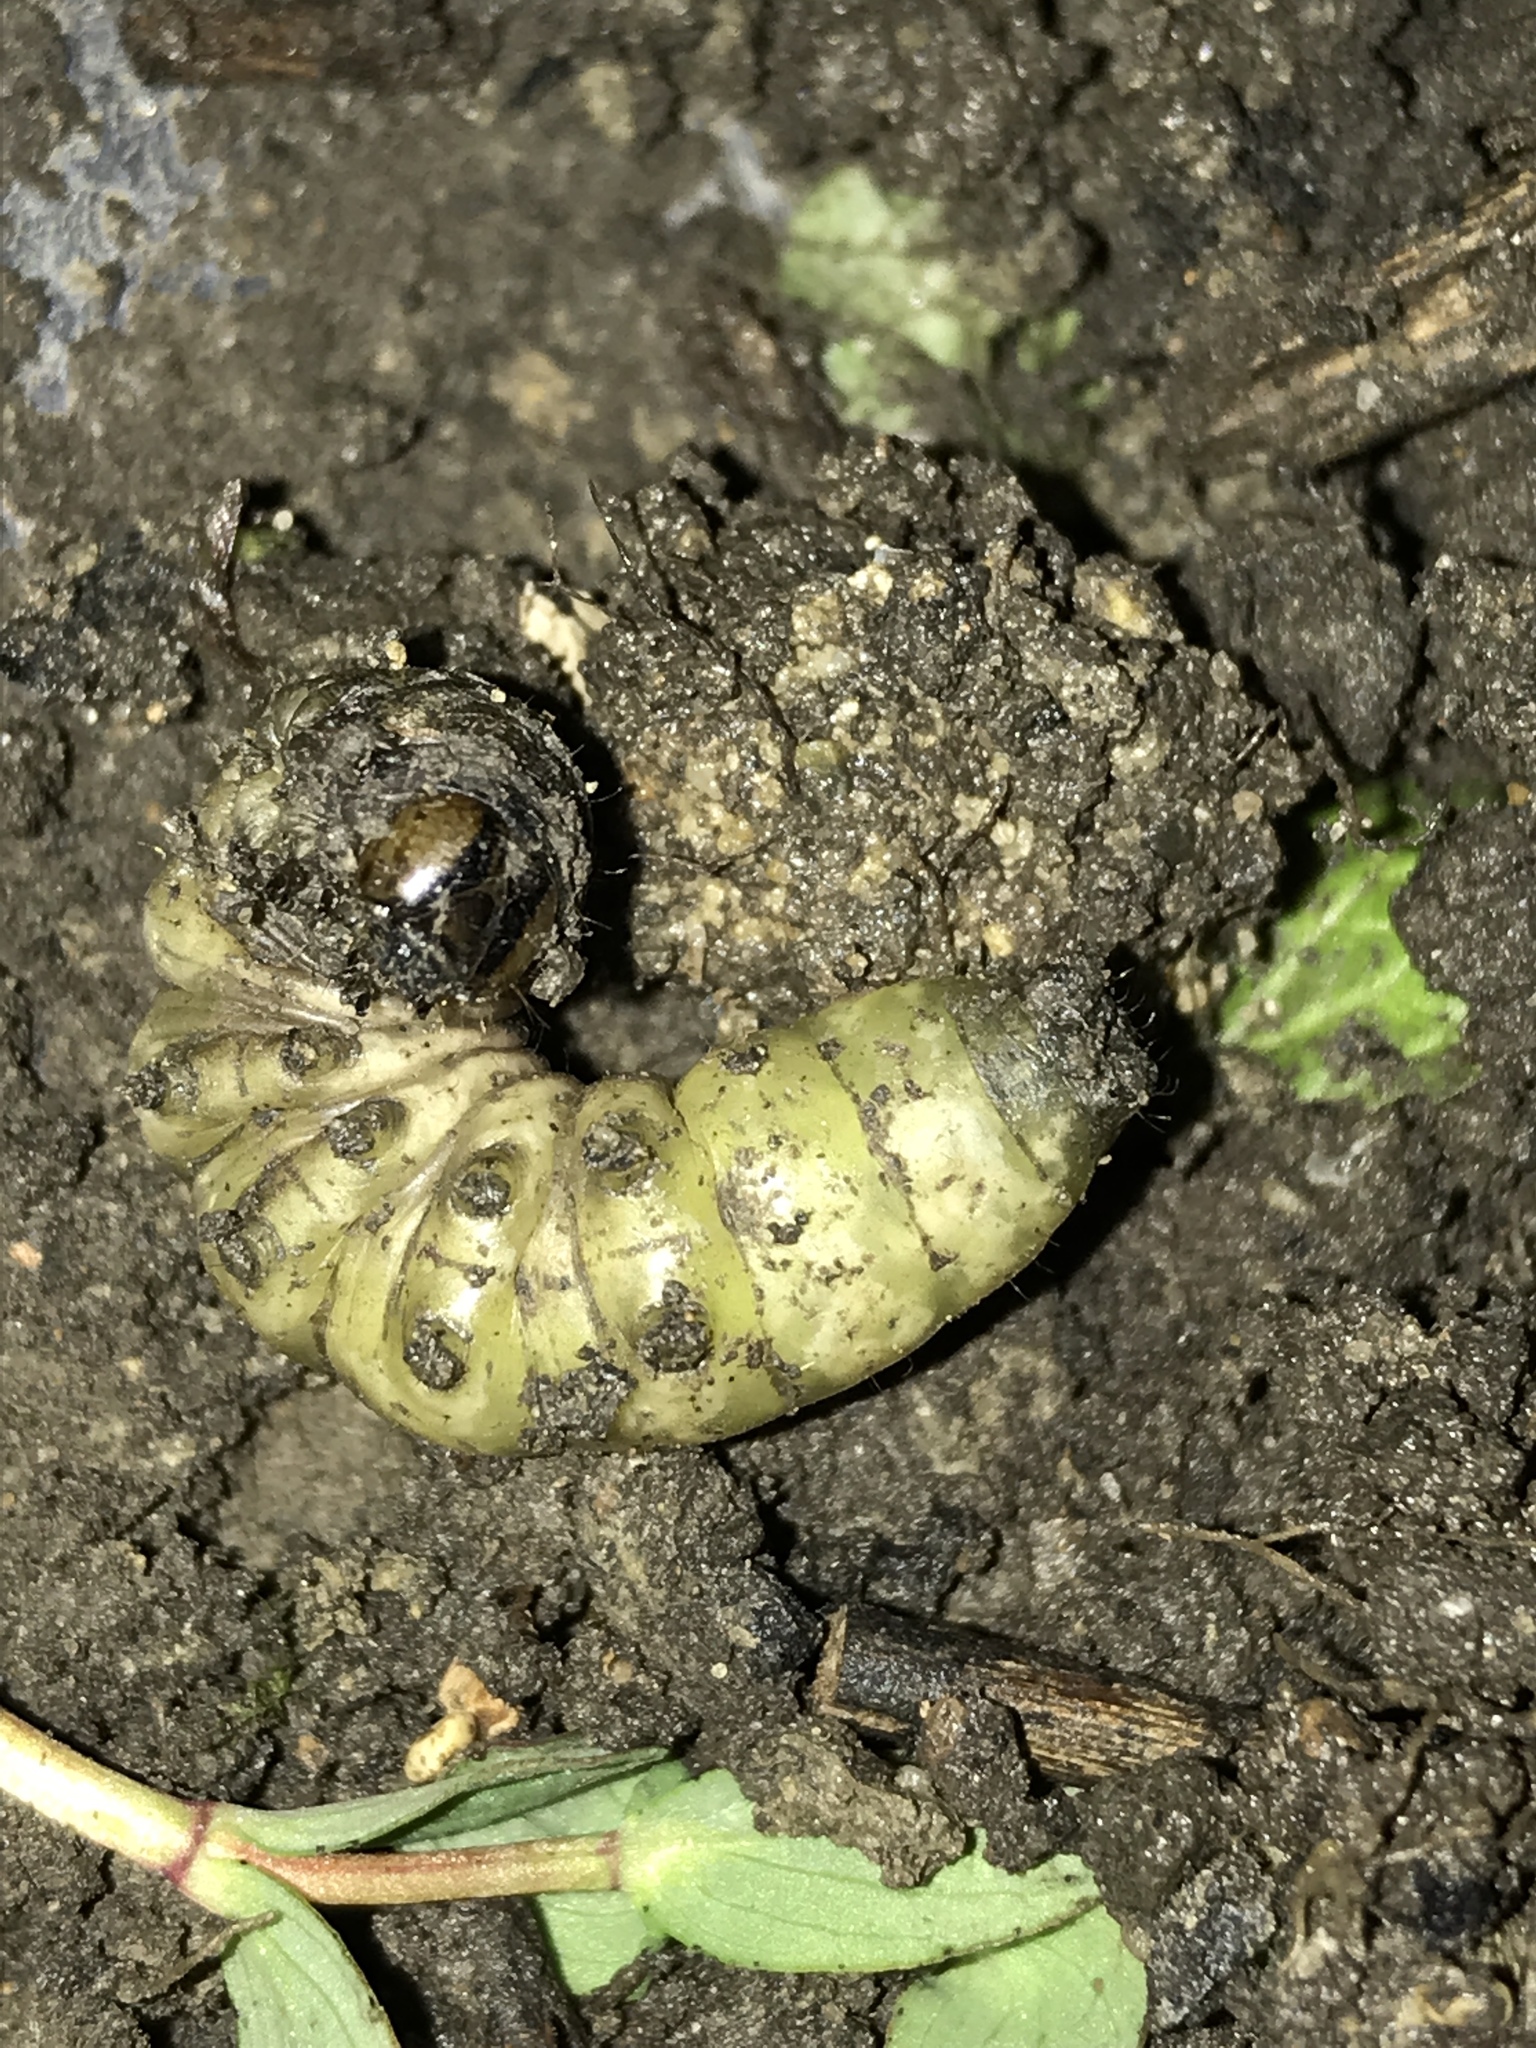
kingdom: Animalia
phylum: Arthropoda
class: Insecta
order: Lepidoptera
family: Noctuidae
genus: Noctua
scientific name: Noctua pronuba
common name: Large yellow underwing
